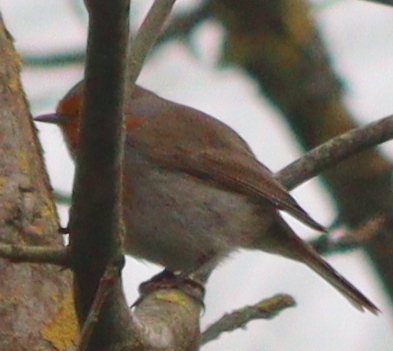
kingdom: Animalia
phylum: Chordata
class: Aves
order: Passeriformes
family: Muscicapidae
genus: Erithacus
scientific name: Erithacus rubecula
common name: European robin
